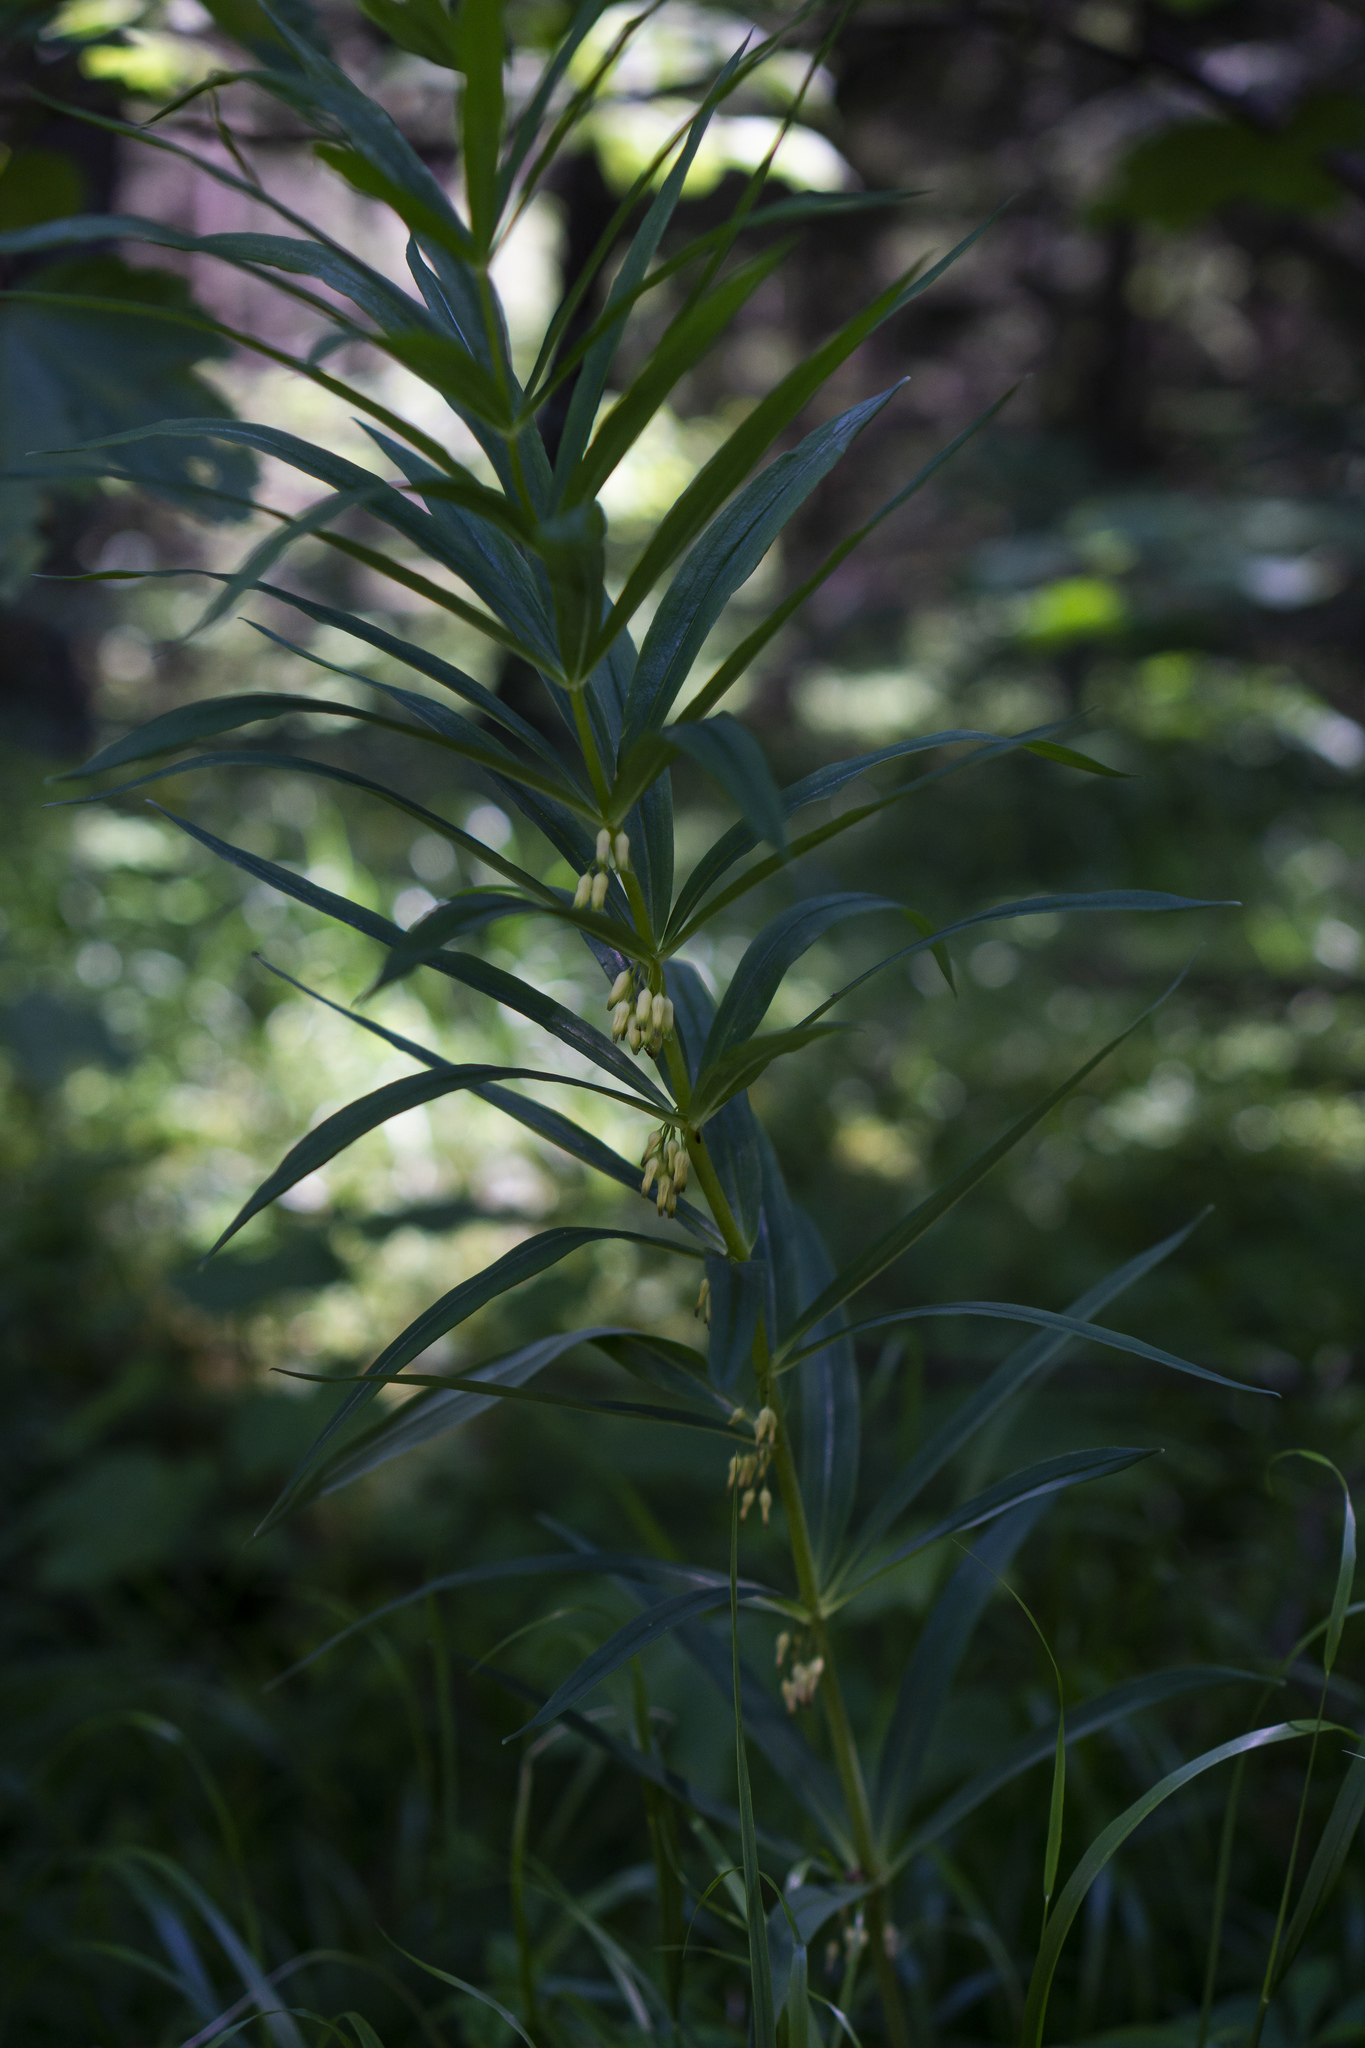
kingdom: Plantae
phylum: Tracheophyta
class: Liliopsida
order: Asparagales
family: Asparagaceae
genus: Polygonatum
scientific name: Polygonatum verticillatum
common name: Whorled solomon's-seal
